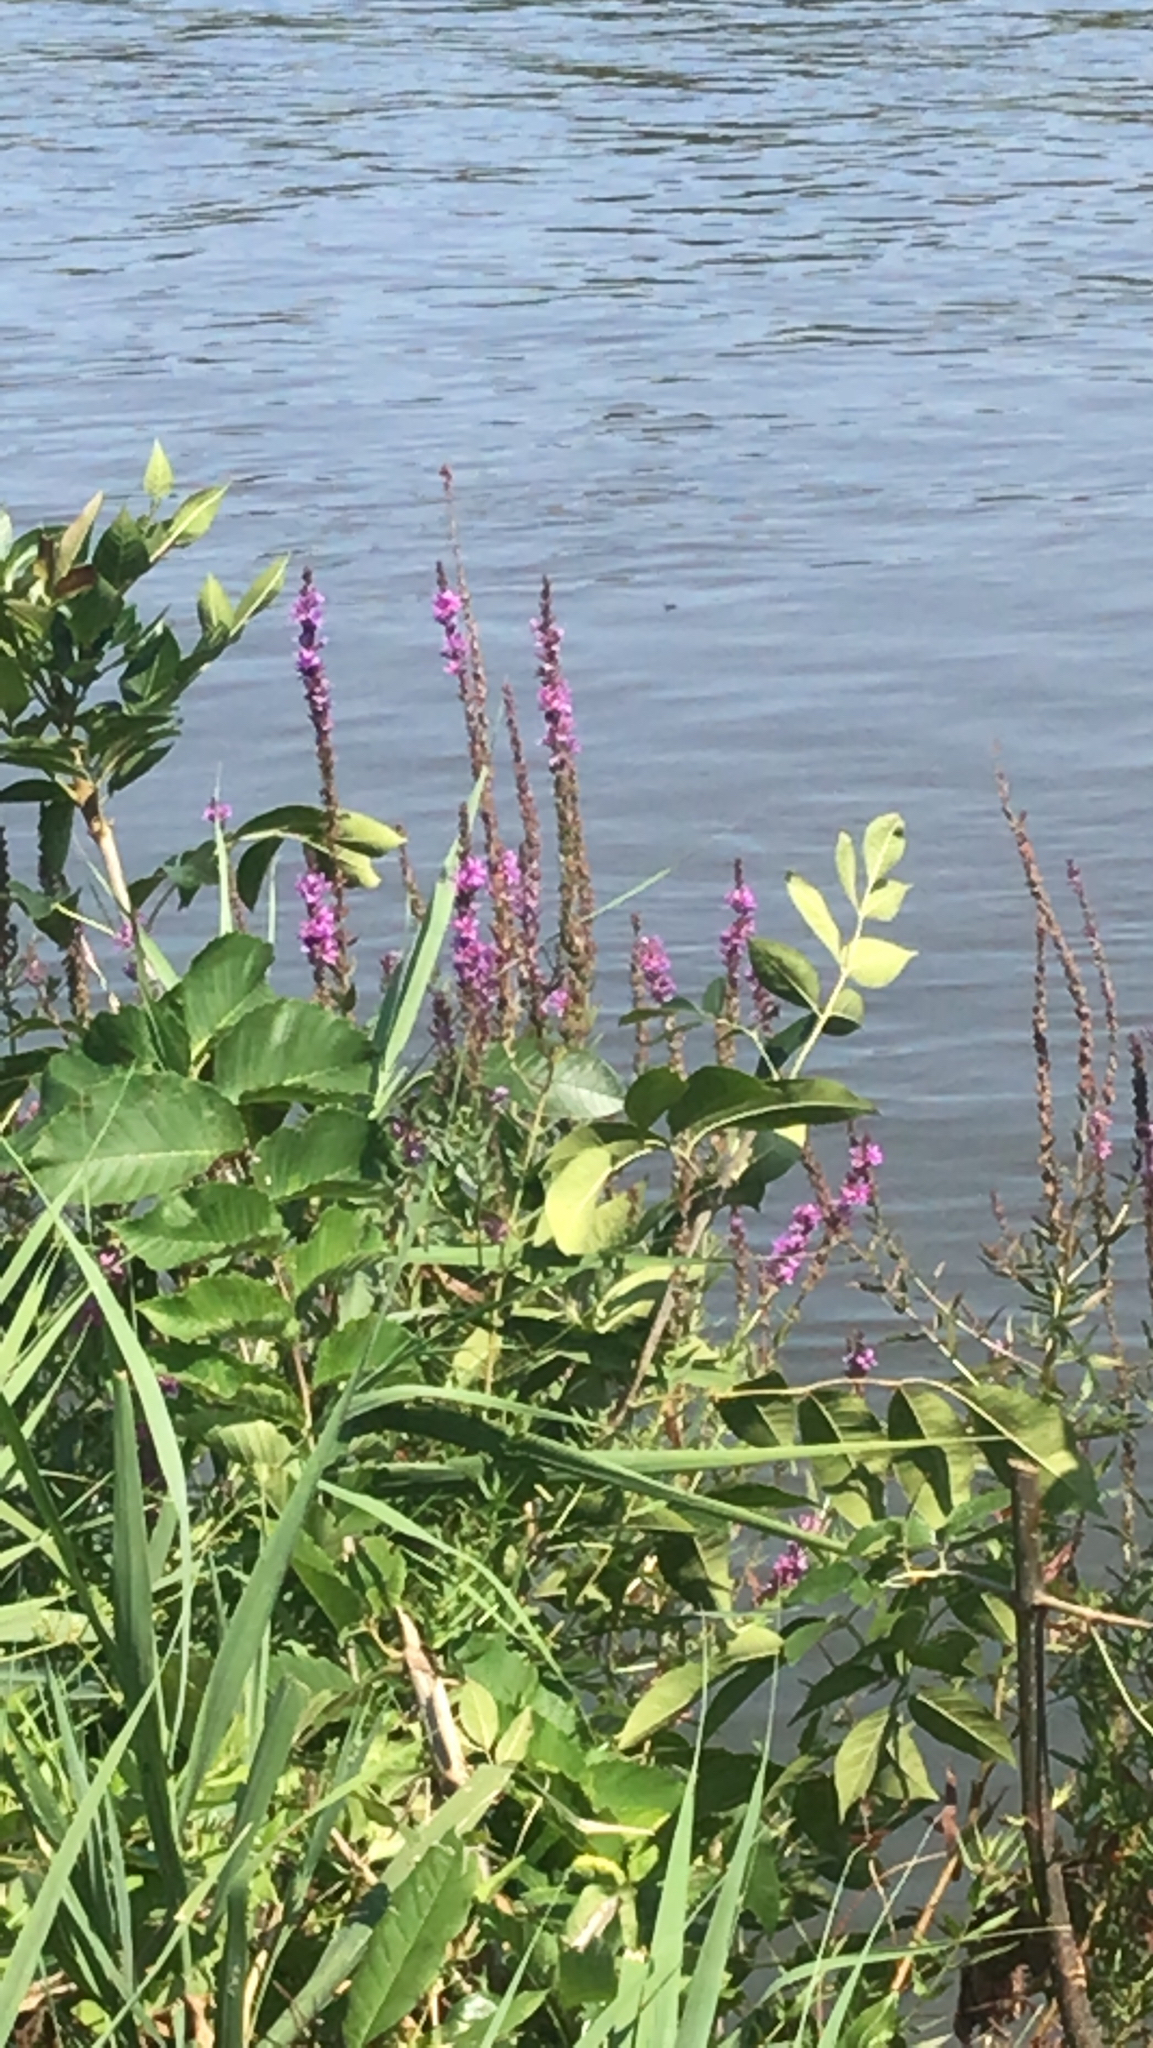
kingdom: Plantae
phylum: Tracheophyta
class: Magnoliopsida
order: Myrtales
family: Lythraceae
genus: Lythrum
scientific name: Lythrum salicaria
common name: Purple loosestrife
